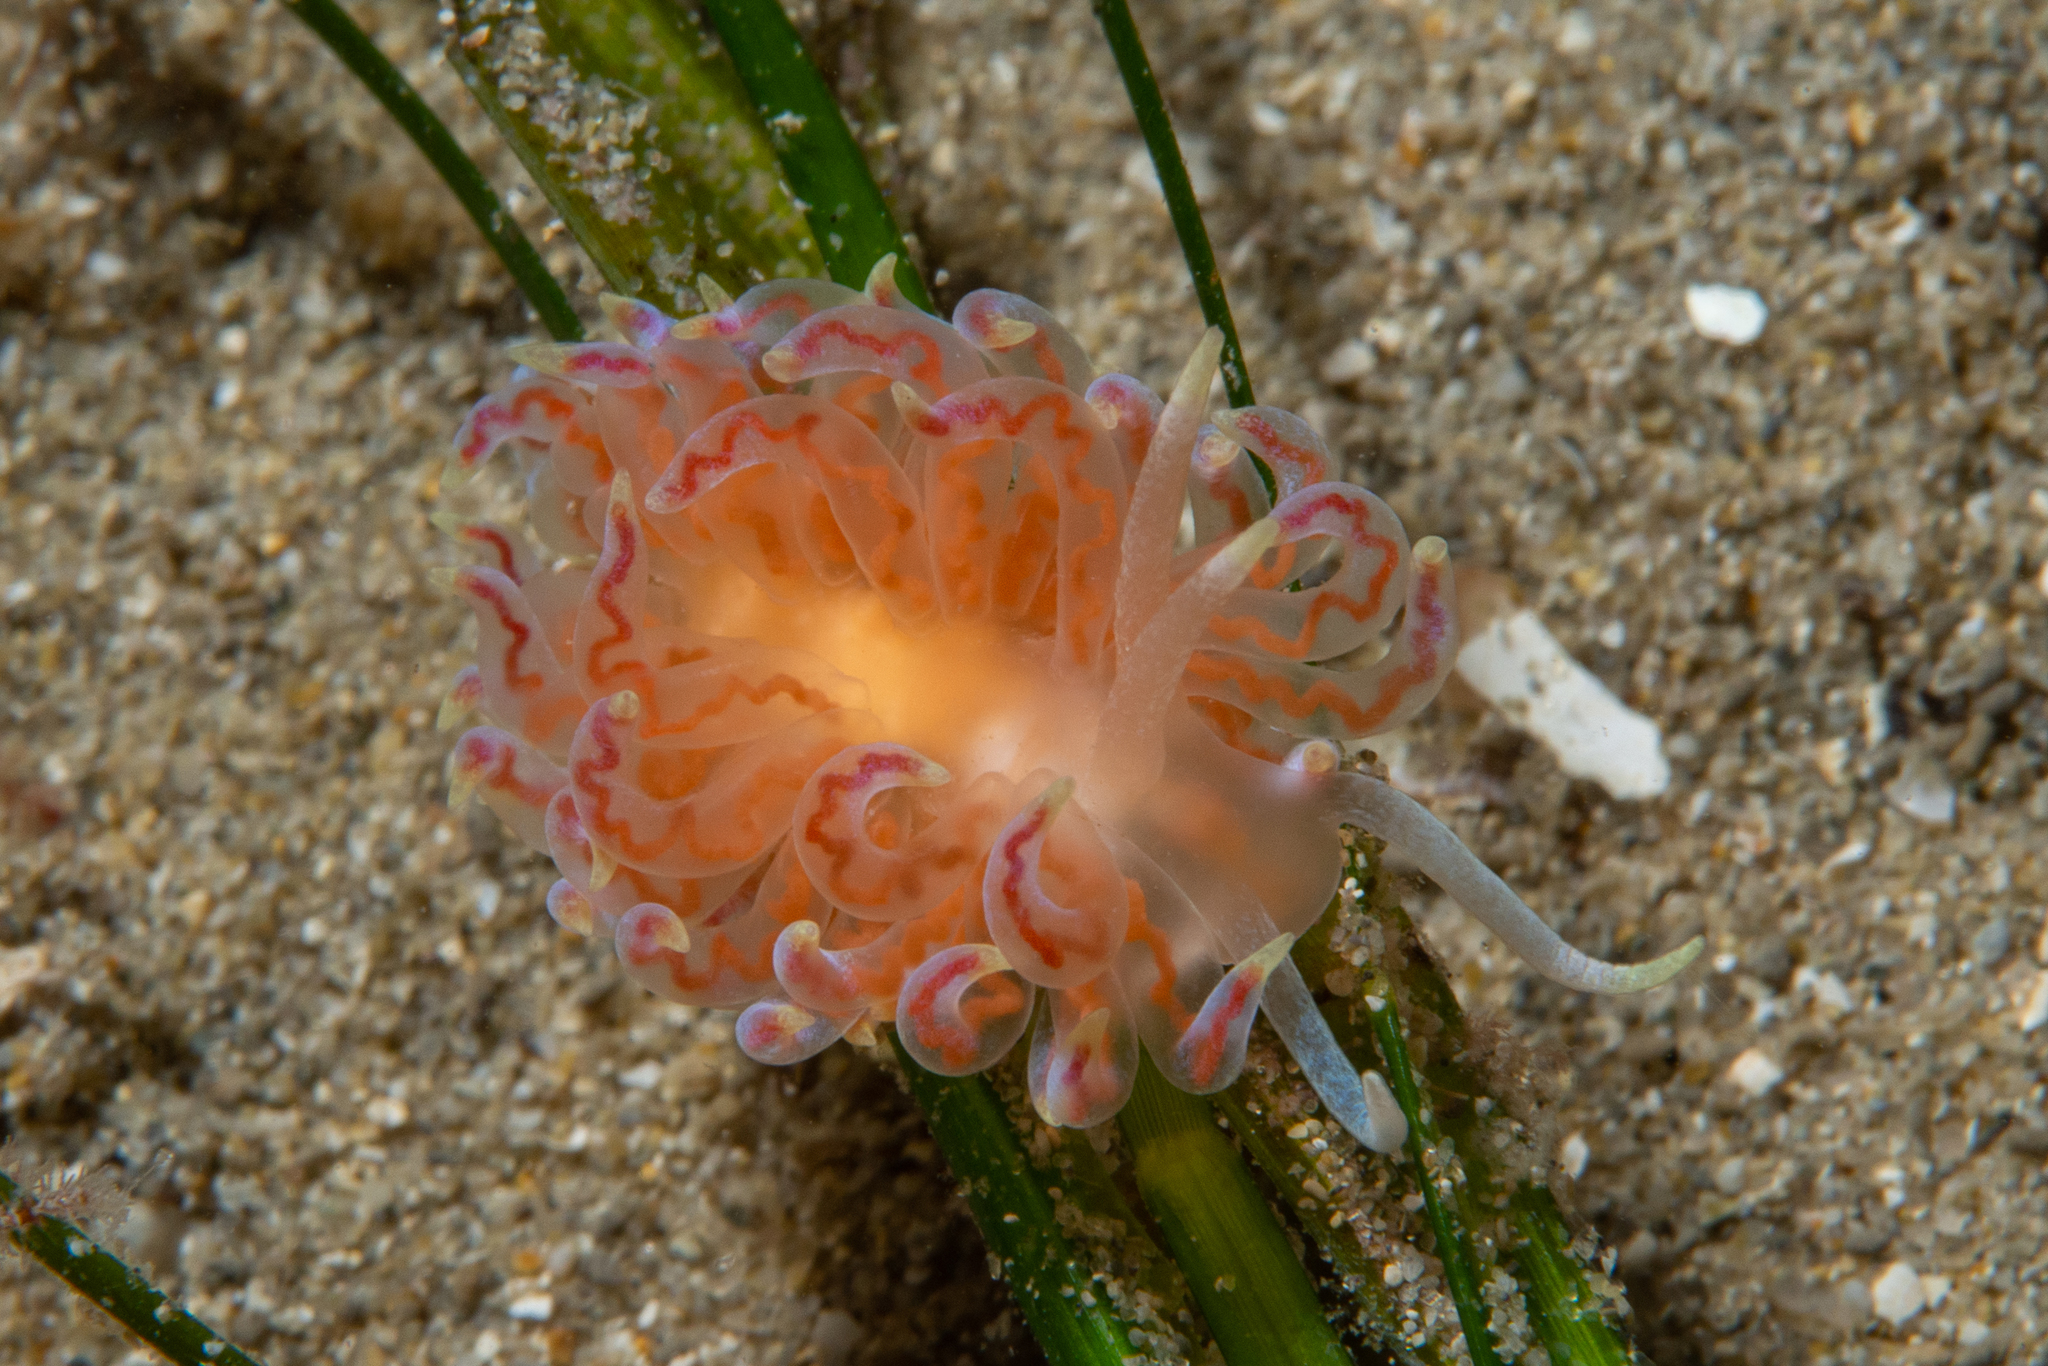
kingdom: Animalia
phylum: Mollusca
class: Gastropoda
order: Nudibranchia
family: Myrrhinidae
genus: Phyllodesmium
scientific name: Phyllodesmium poindimiei
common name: Sea slug
